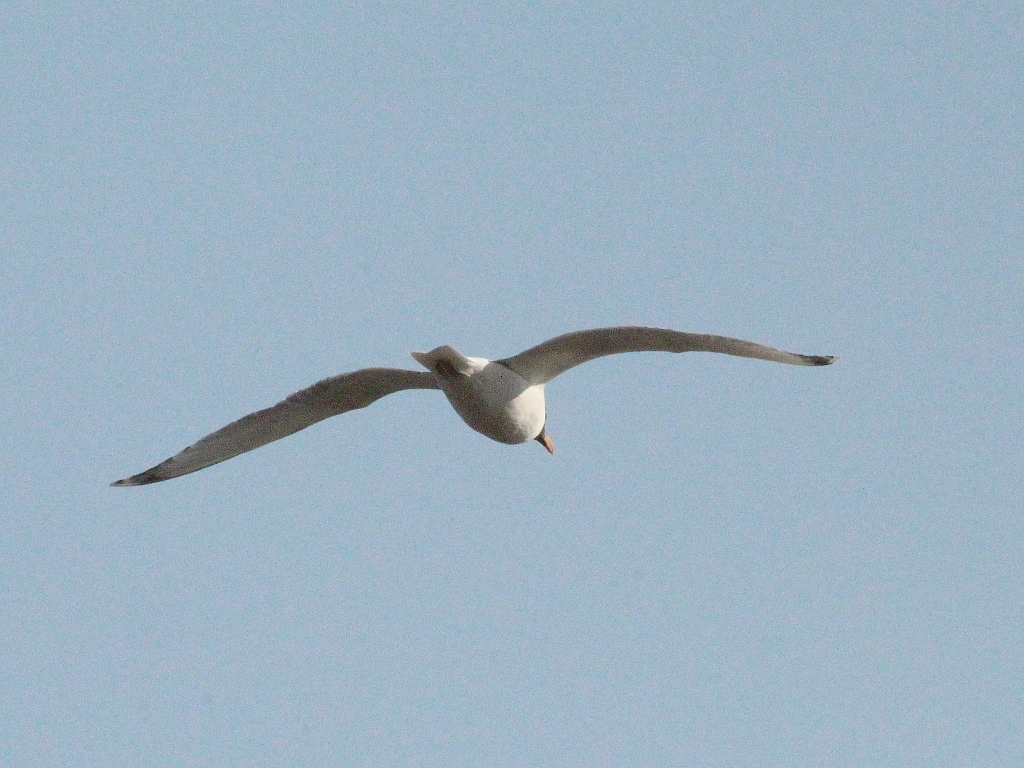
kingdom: Animalia
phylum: Chordata
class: Aves
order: Charadriiformes
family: Laridae
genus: Ichthyaetus
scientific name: Ichthyaetus ichthyaetus
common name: Pallas's gull
